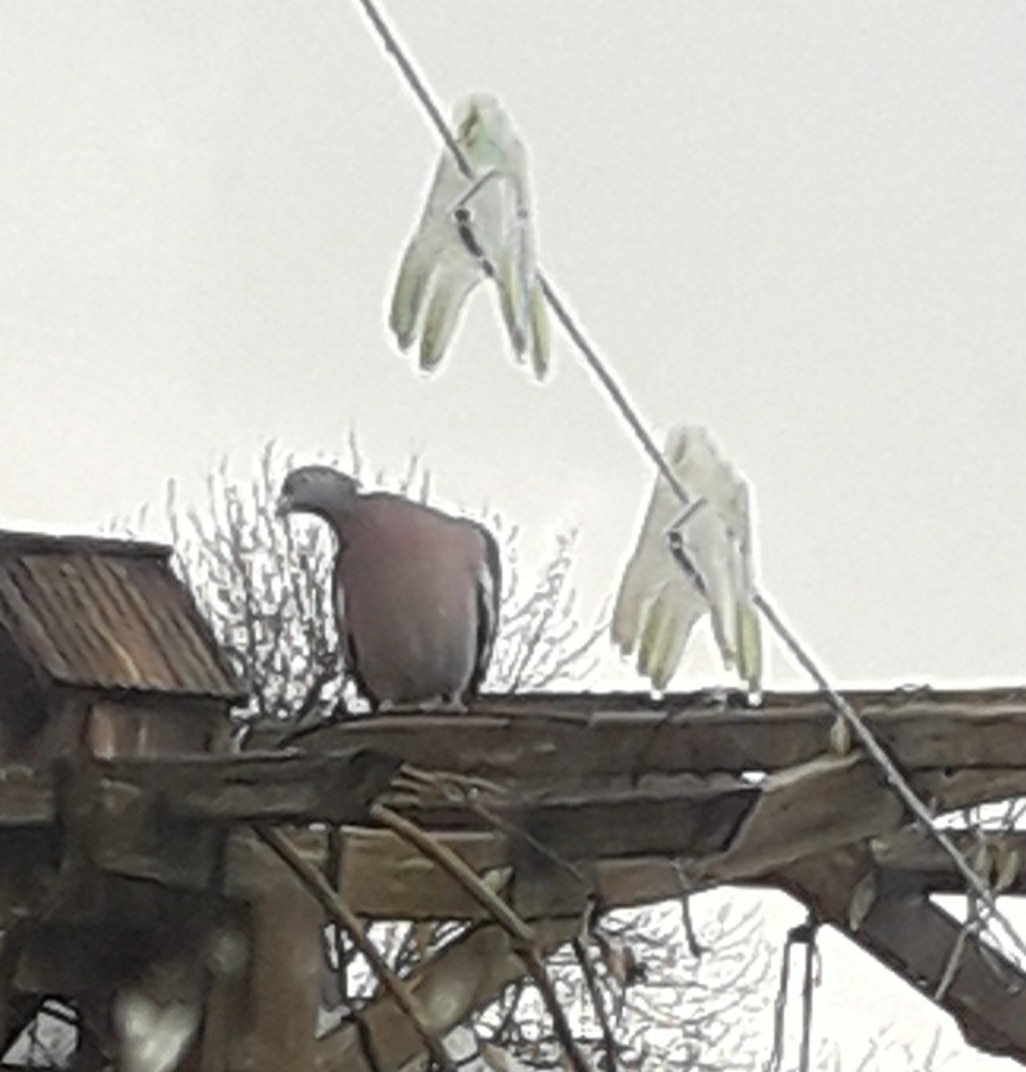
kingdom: Animalia
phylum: Chordata
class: Aves
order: Columbiformes
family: Columbidae
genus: Columba
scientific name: Columba palumbus
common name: Common wood pigeon
